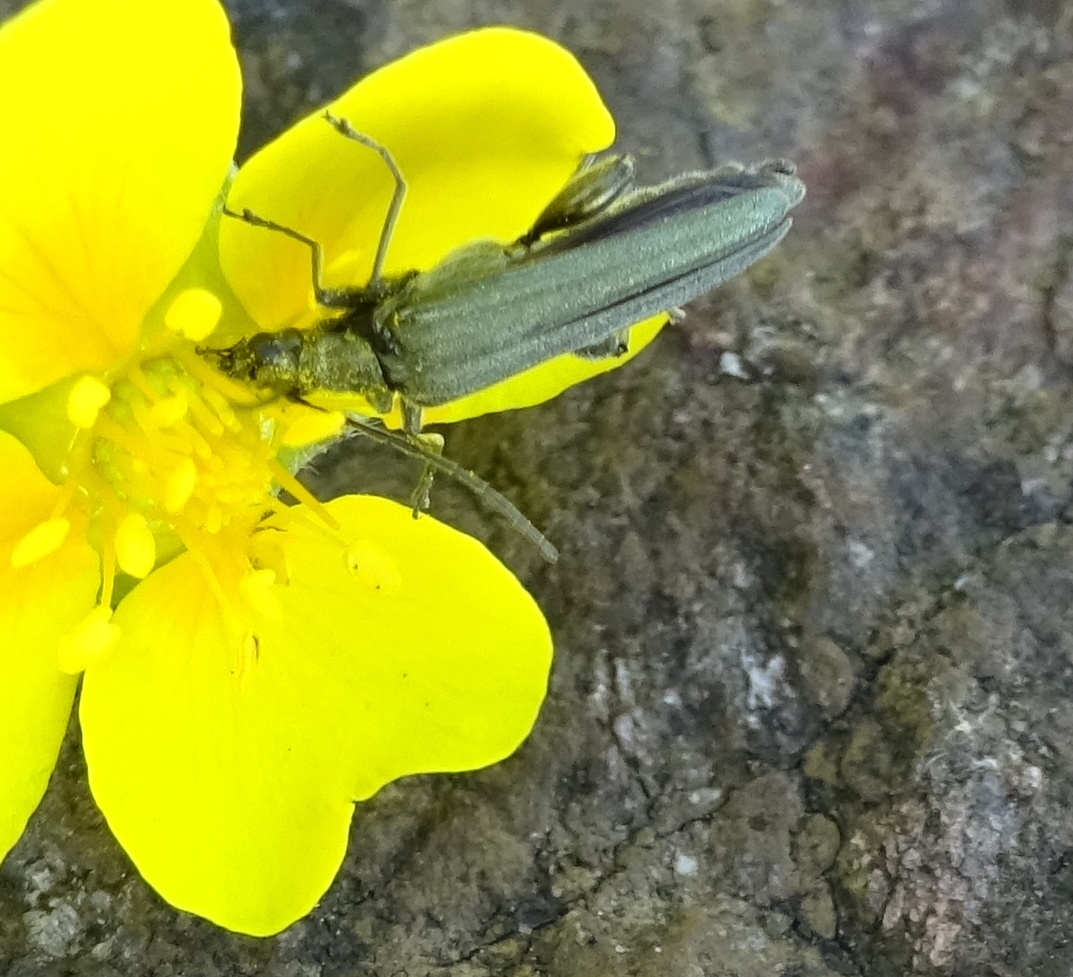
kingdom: Animalia
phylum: Arthropoda
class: Insecta
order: Coleoptera
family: Oedemeridae
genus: Oedemera
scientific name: Oedemera virescens
